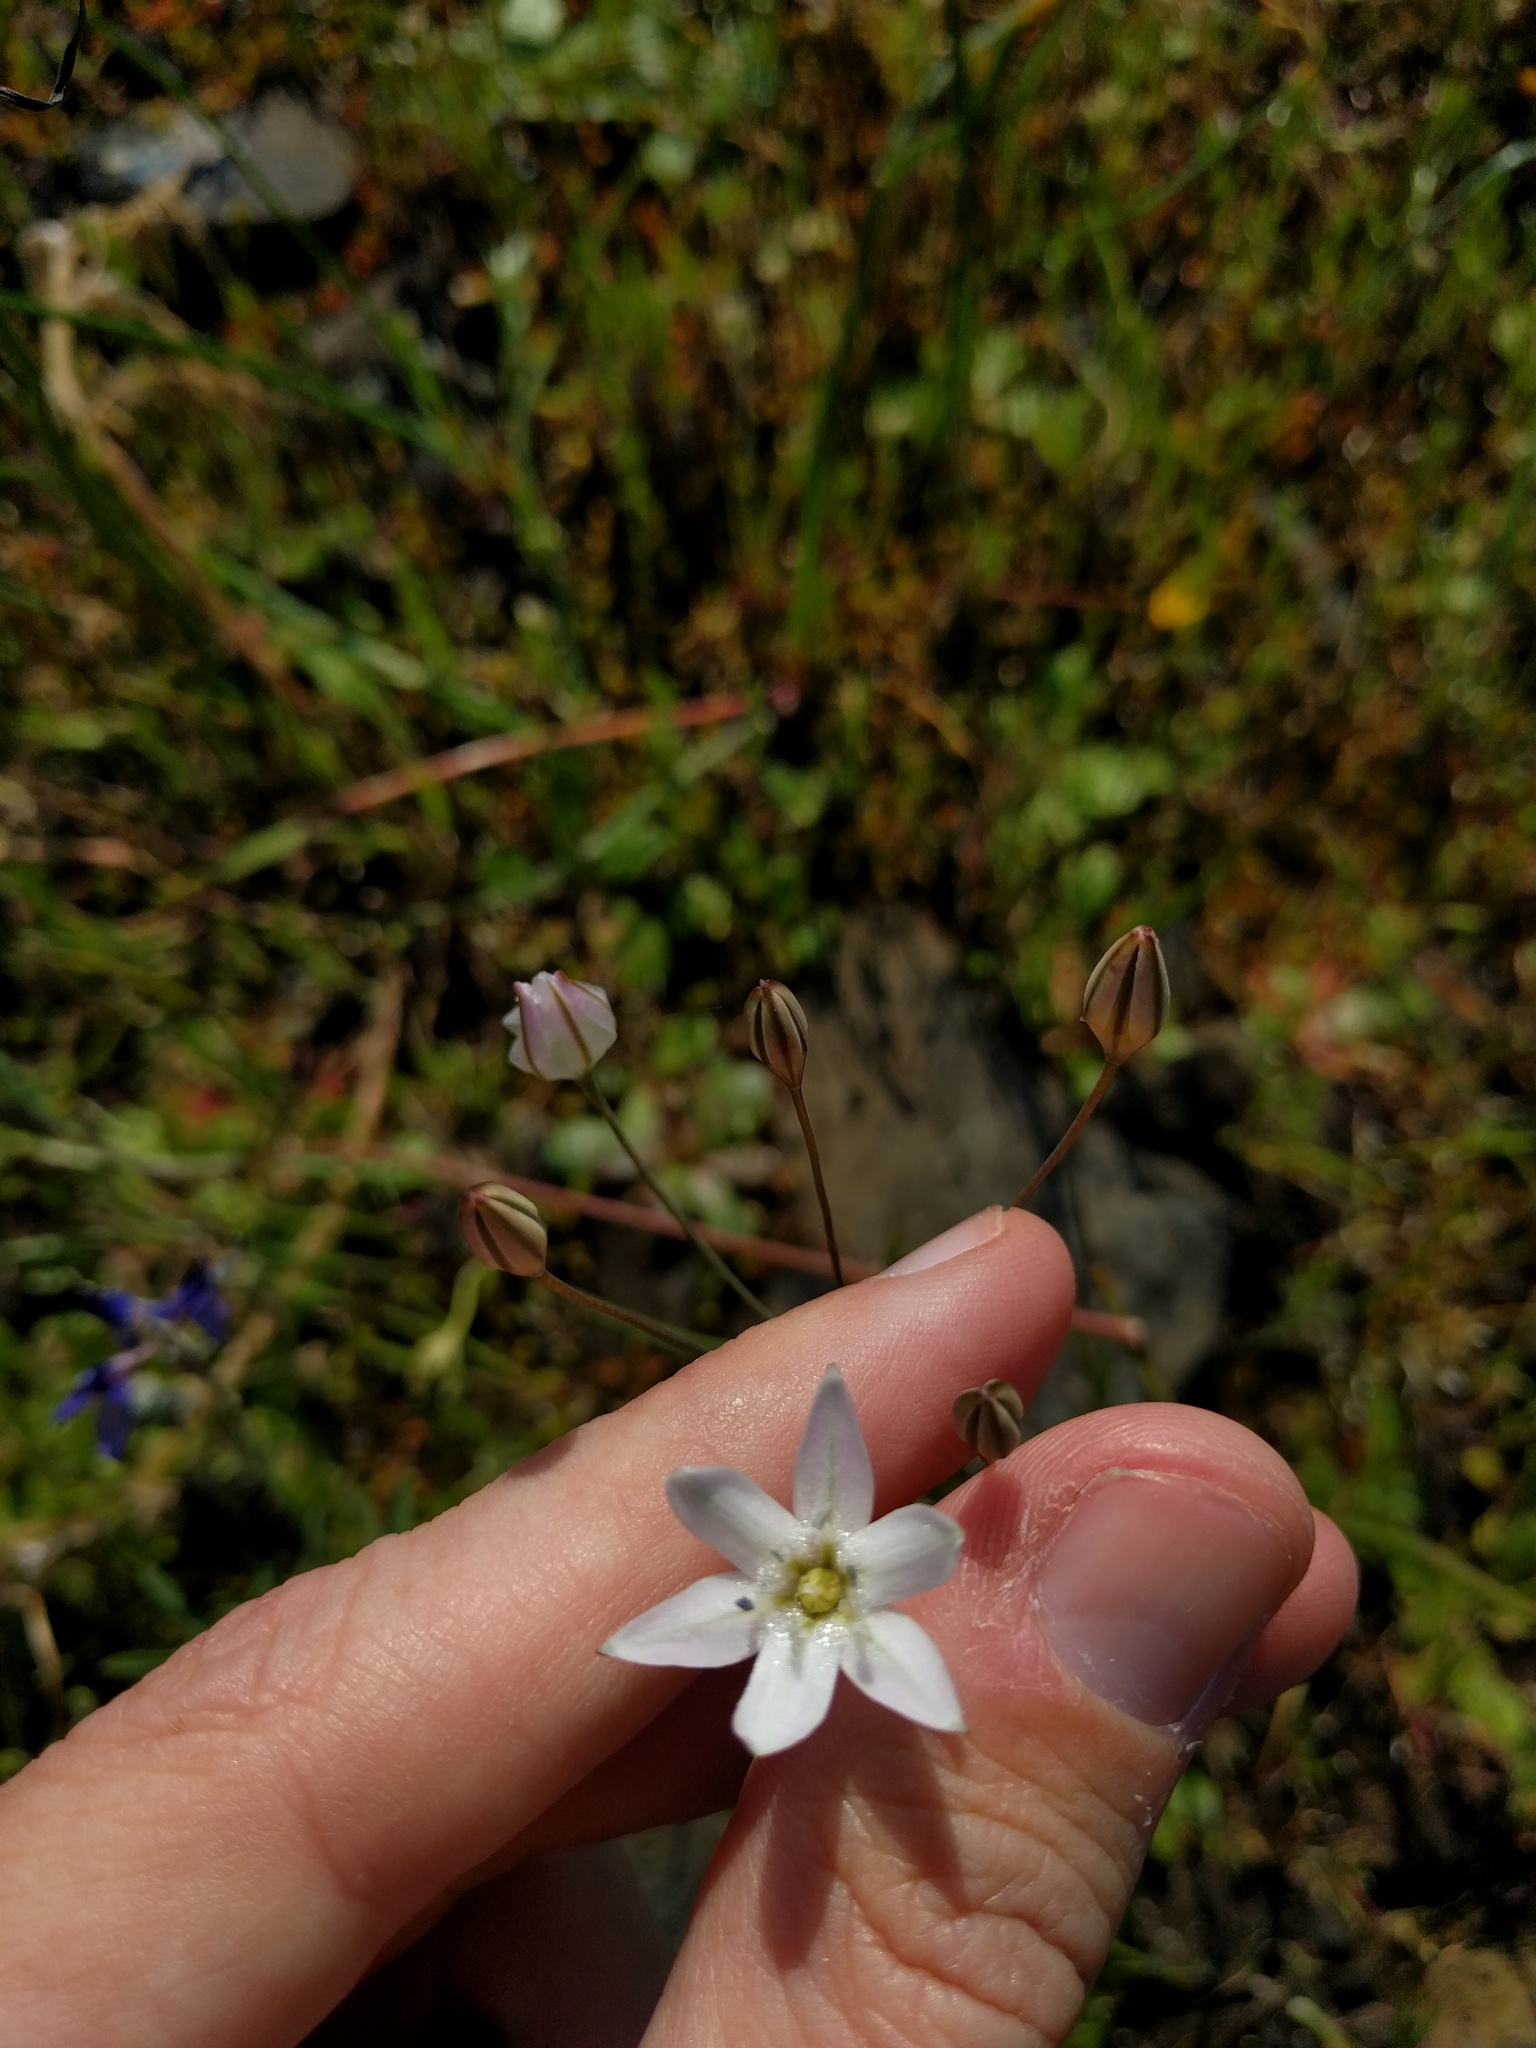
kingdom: Plantae
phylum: Tracheophyta
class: Liliopsida
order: Asparagales
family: Asparagaceae
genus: Triteleia
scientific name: Triteleia lilacina
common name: Lilac-flower wild hyacinth
